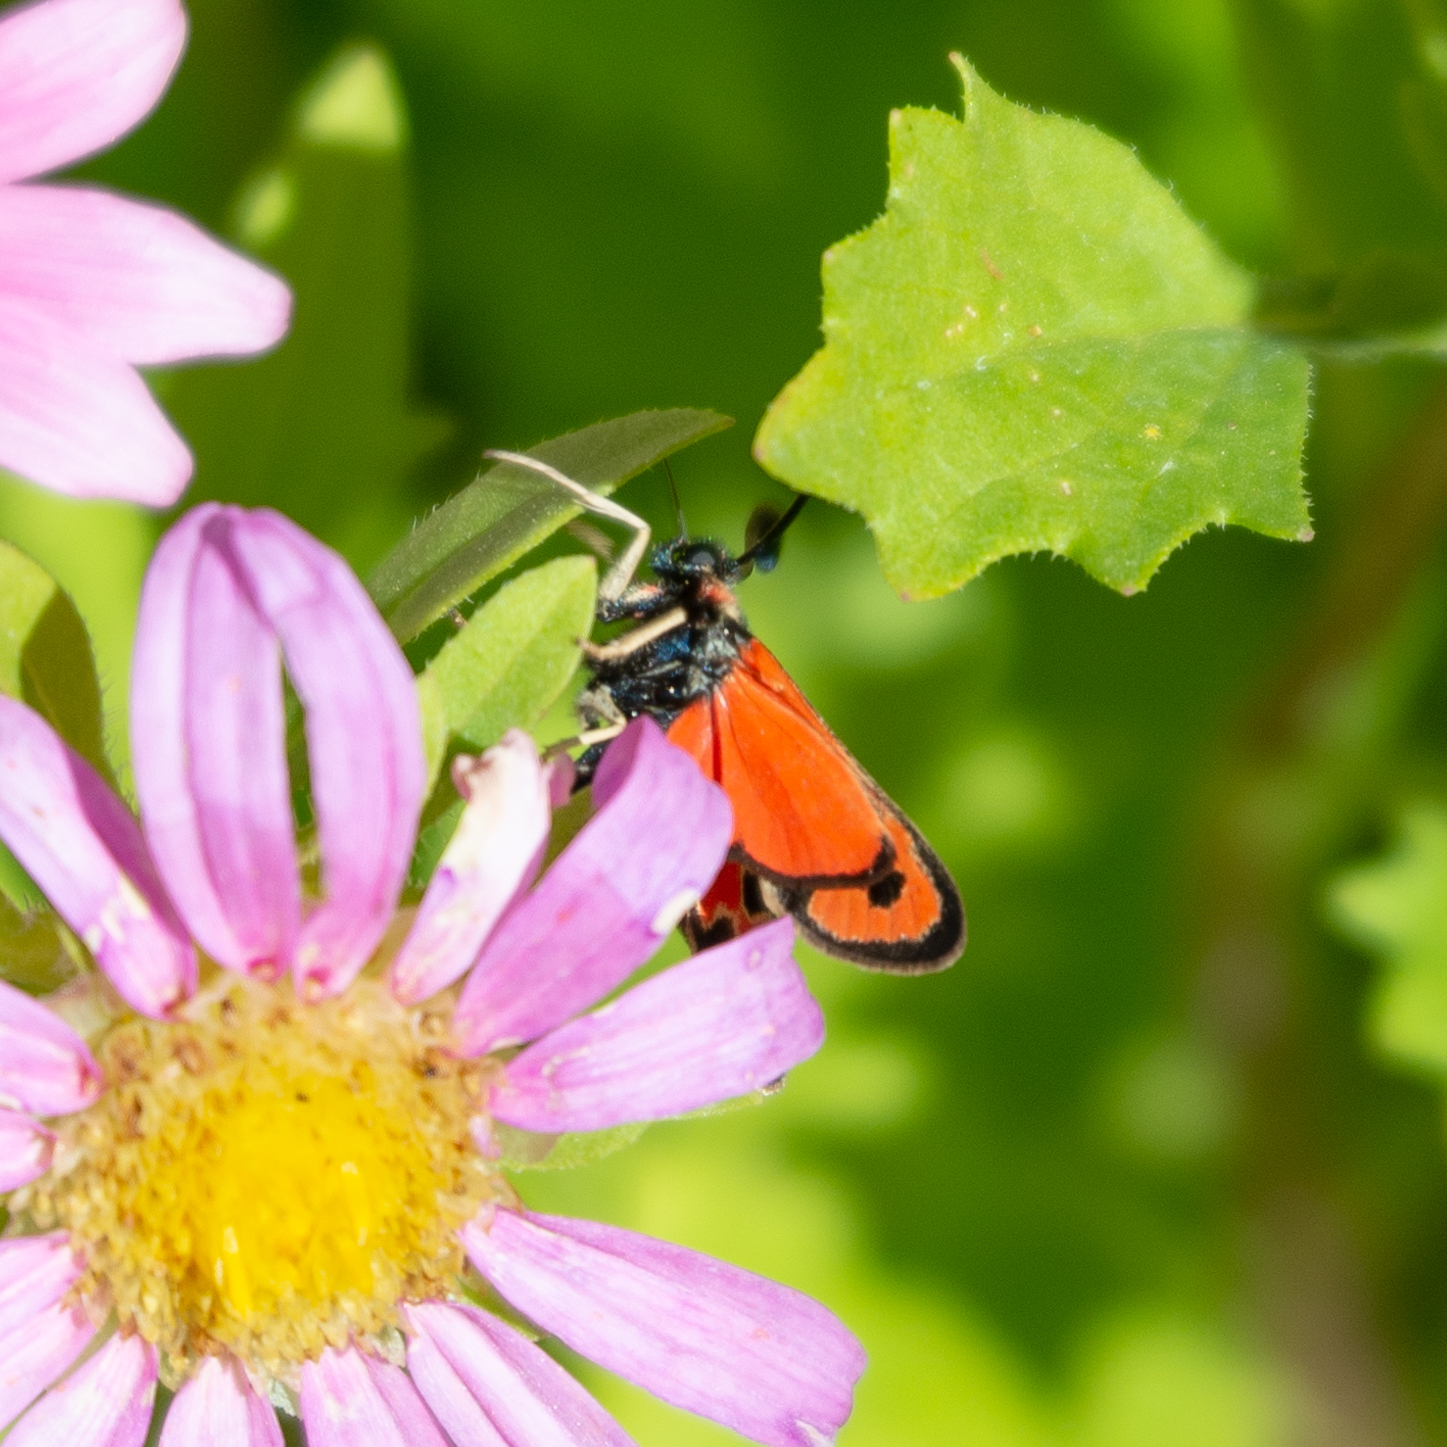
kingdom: Animalia
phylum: Arthropoda
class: Insecta
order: Lepidoptera
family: Zygaenidae
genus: Zygaena
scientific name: Zygaena fausta
